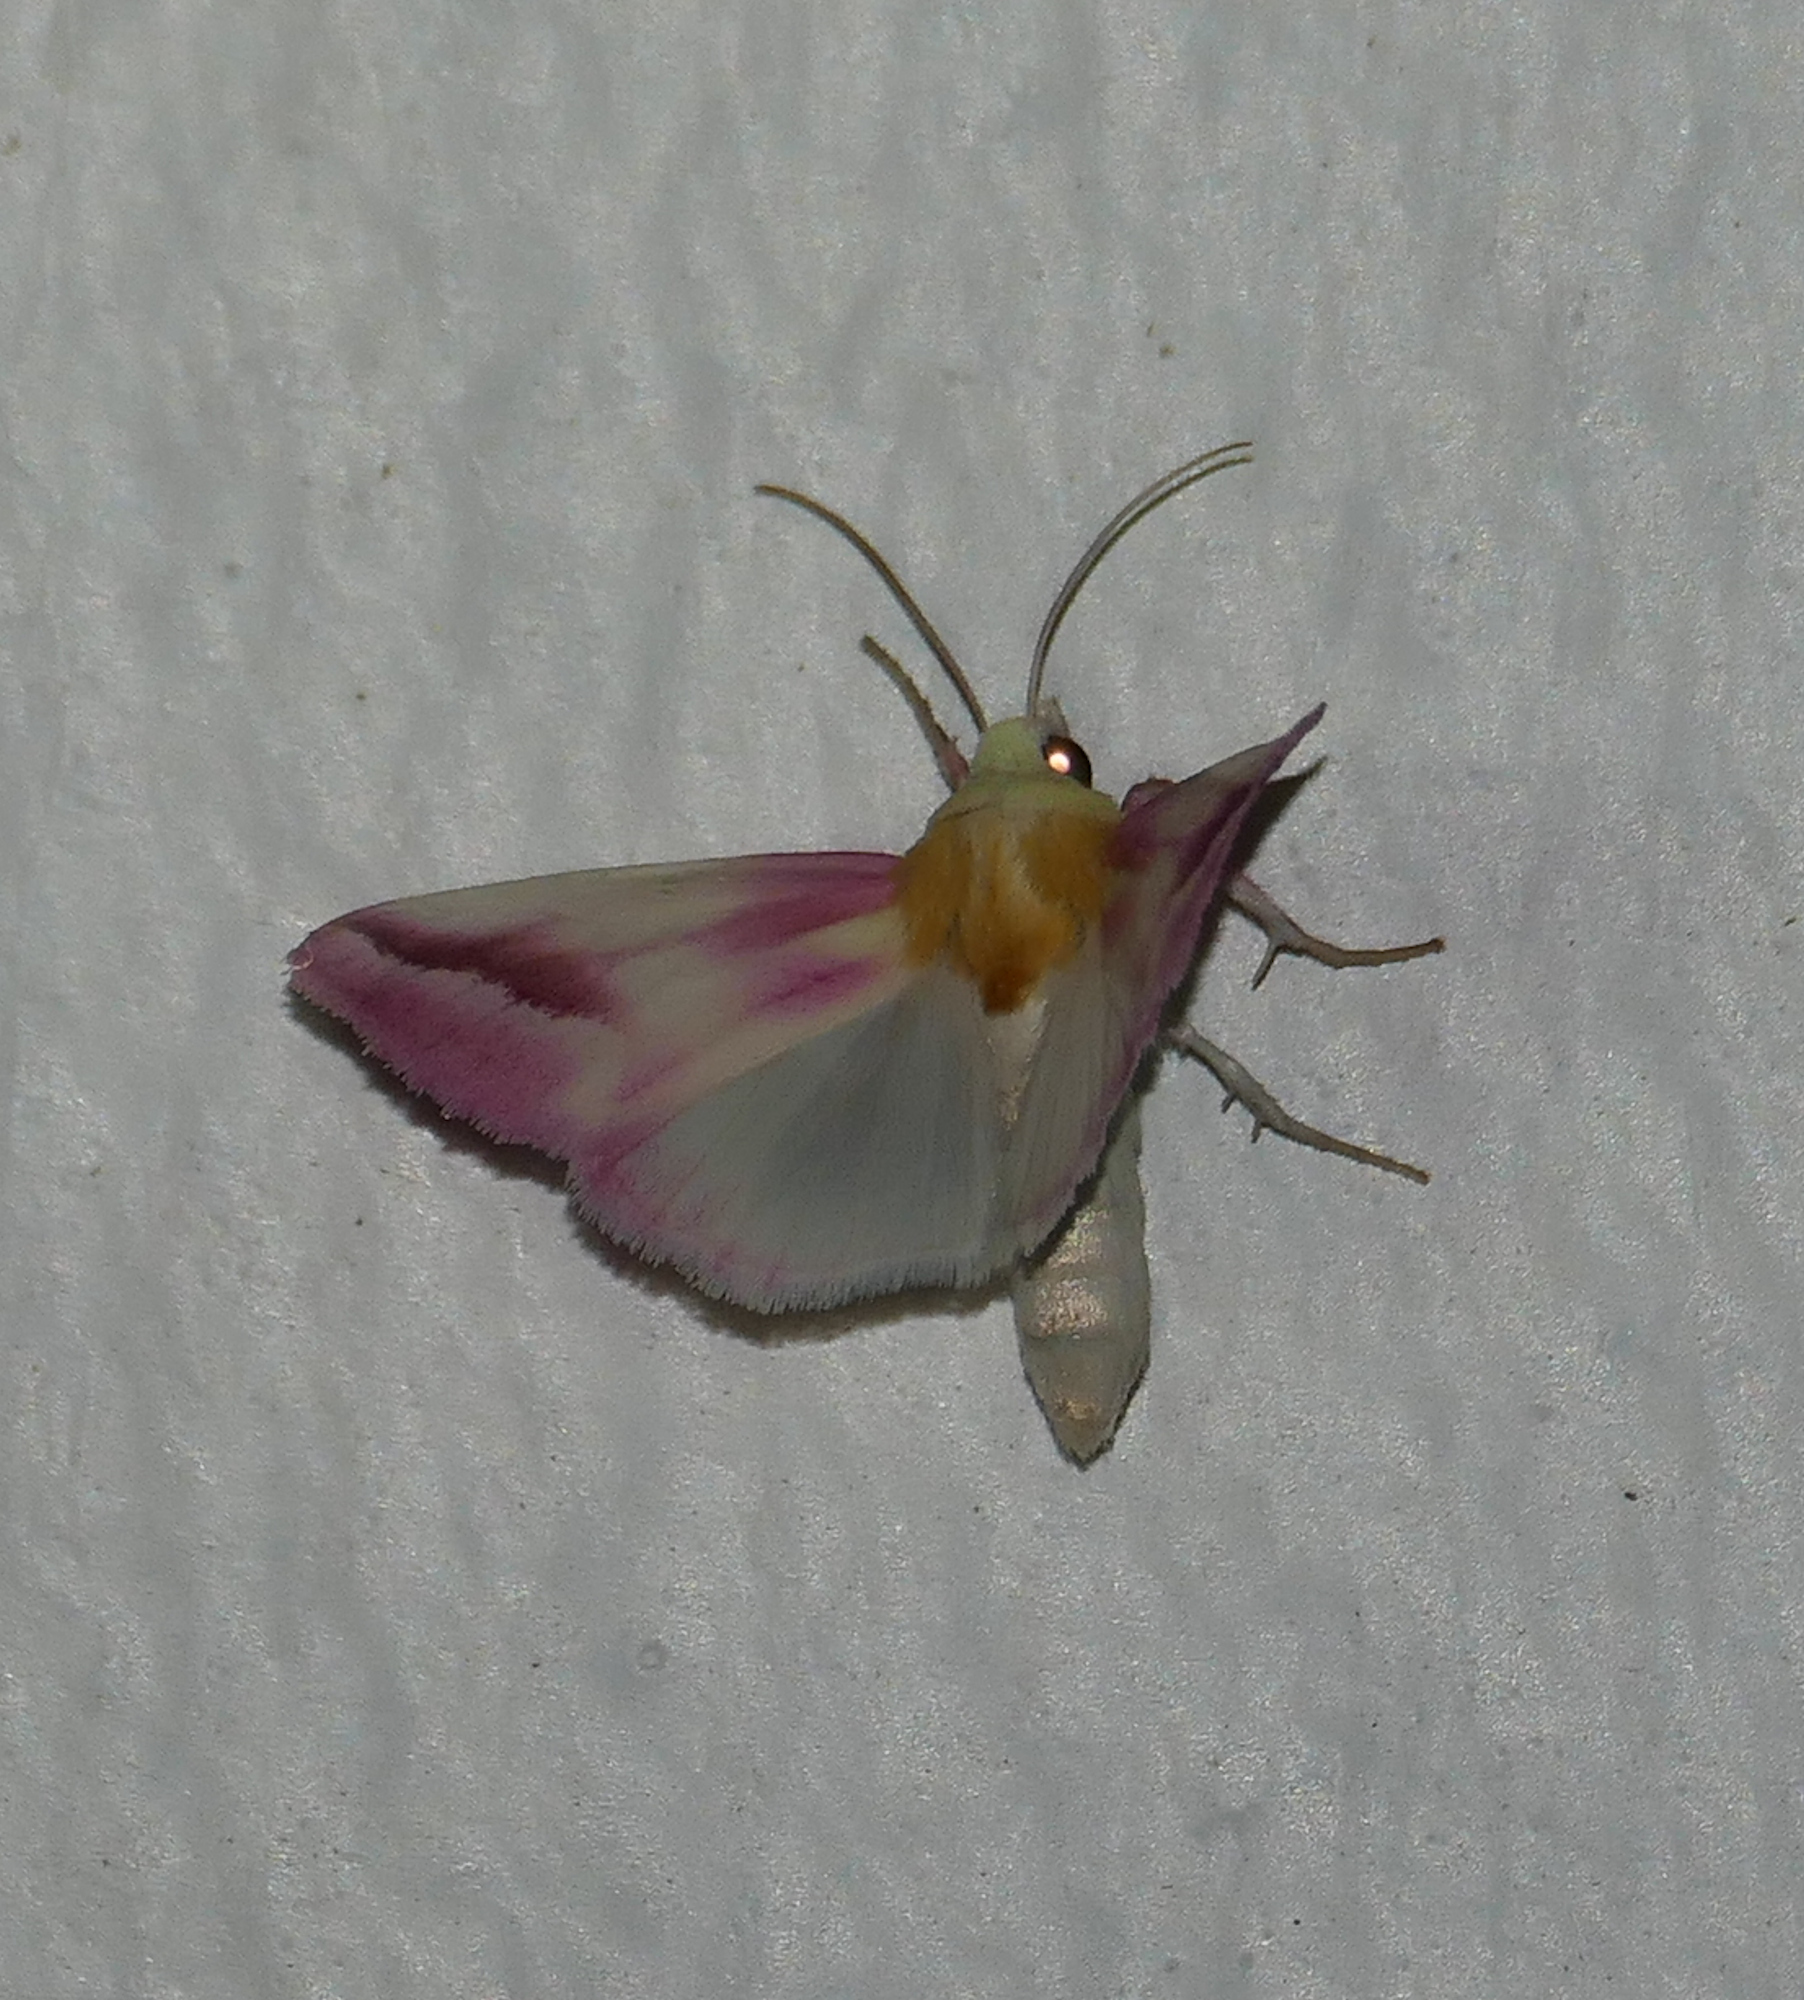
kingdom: Animalia
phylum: Arthropoda
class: Insecta
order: Lepidoptera
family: Noctuidae
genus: Schinia
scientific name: Schinia gaurae
